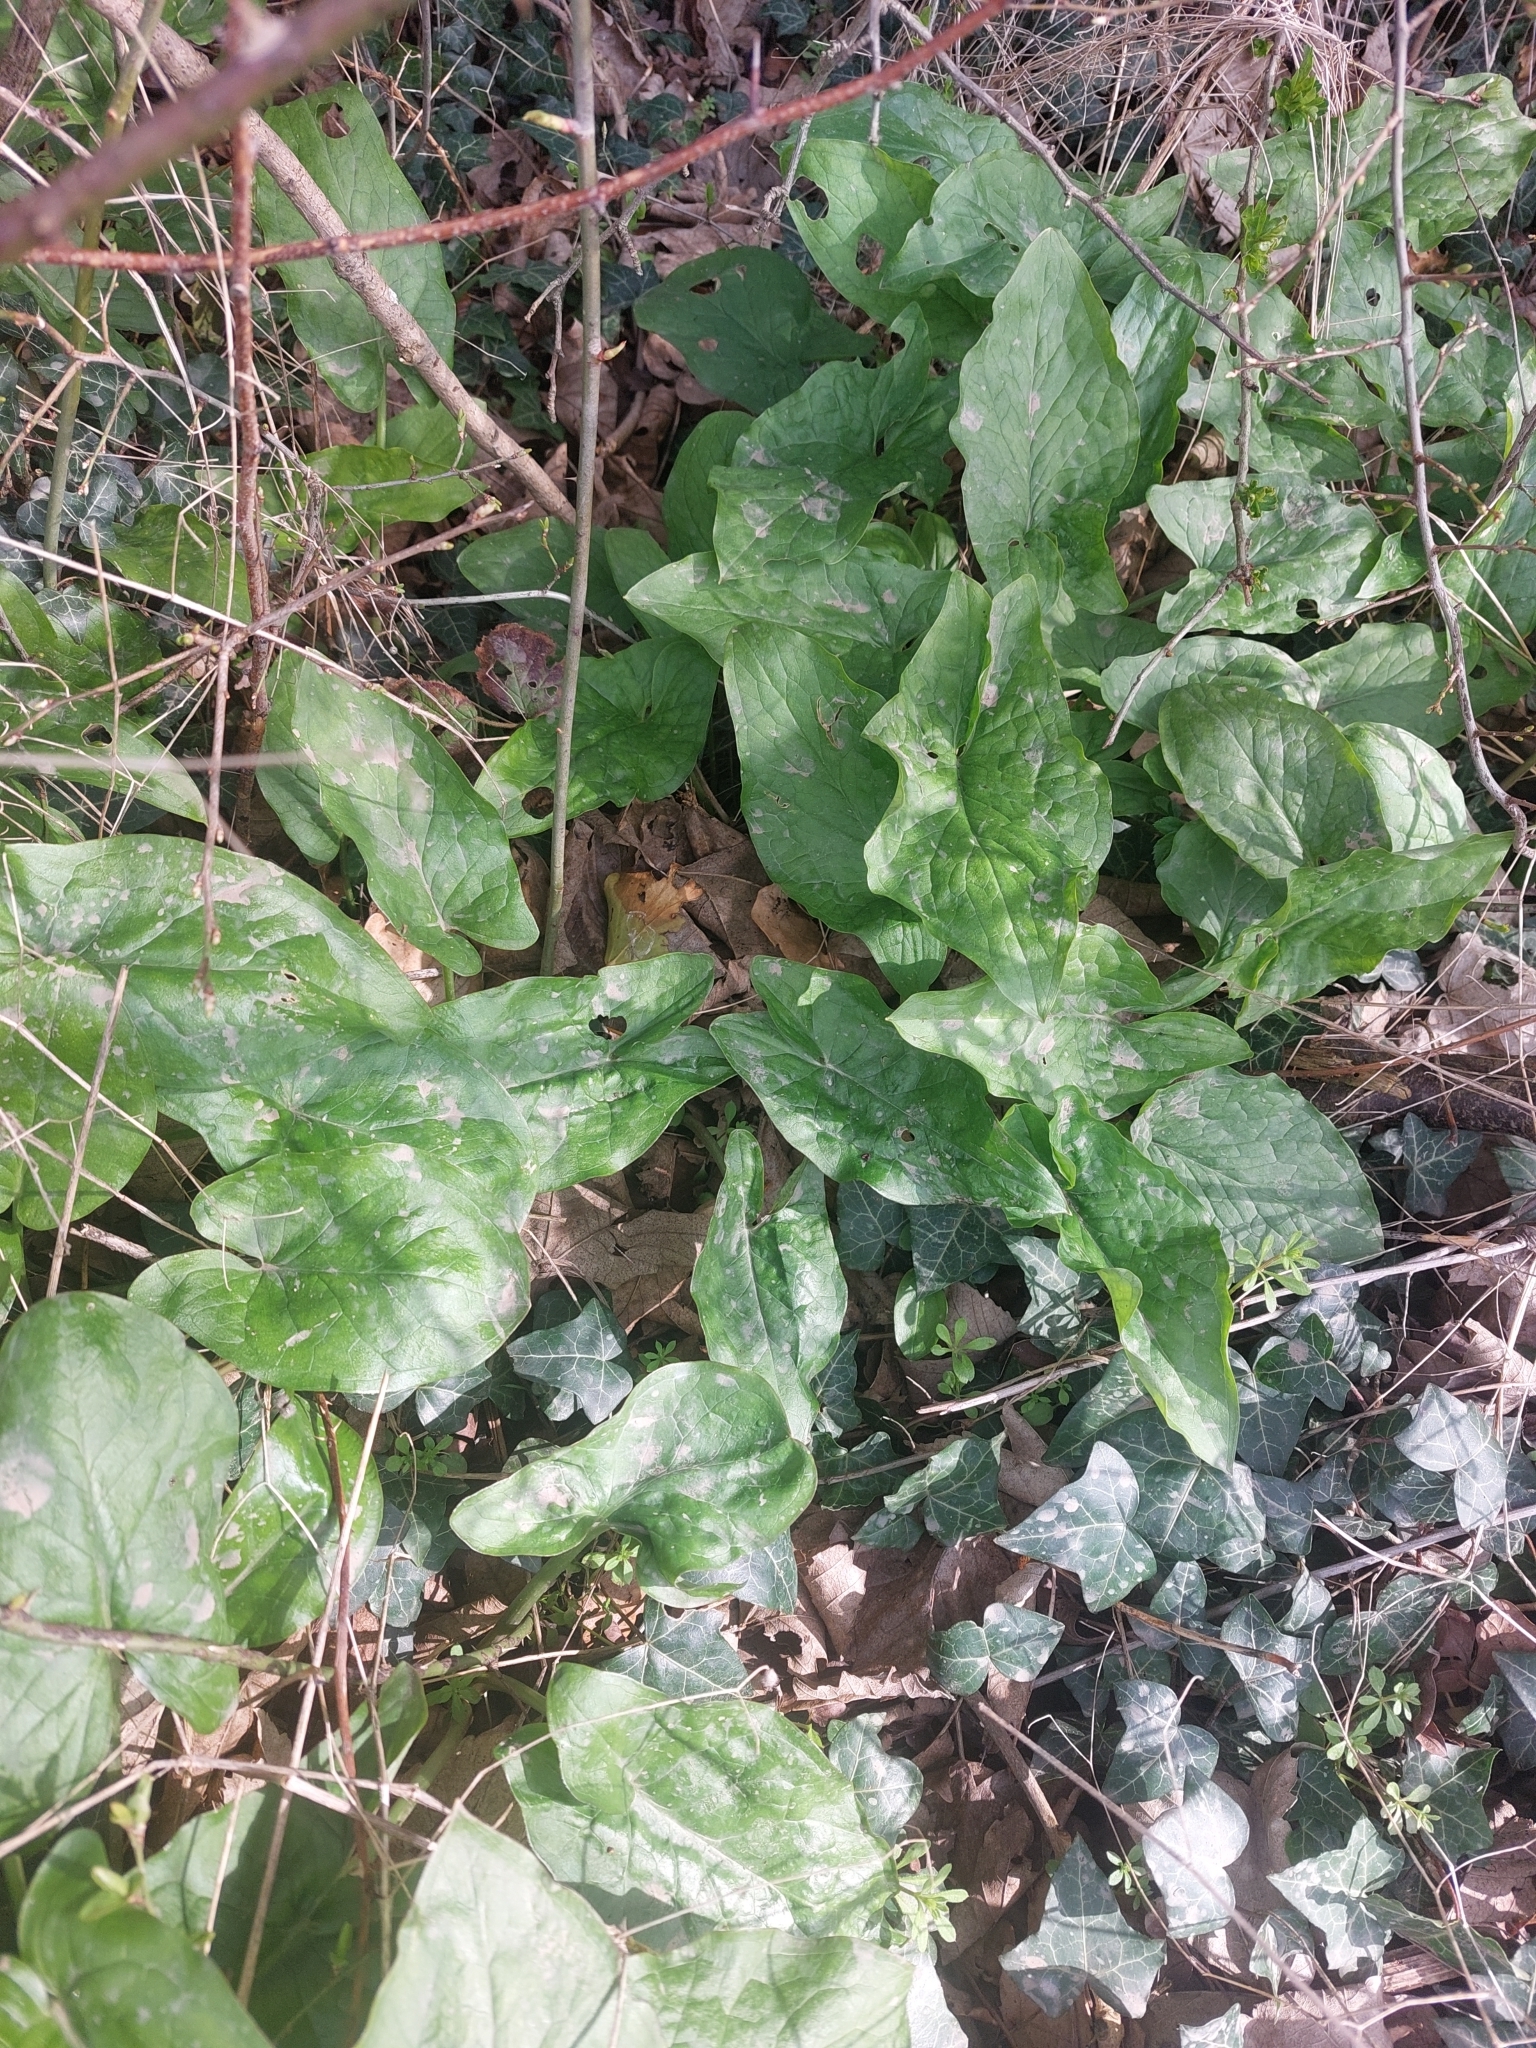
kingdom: Plantae
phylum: Tracheophyta
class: Liliopsida
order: Alismatales
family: Araceae
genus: Arum
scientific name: Arum maculatum
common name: Lords-and-ladies
